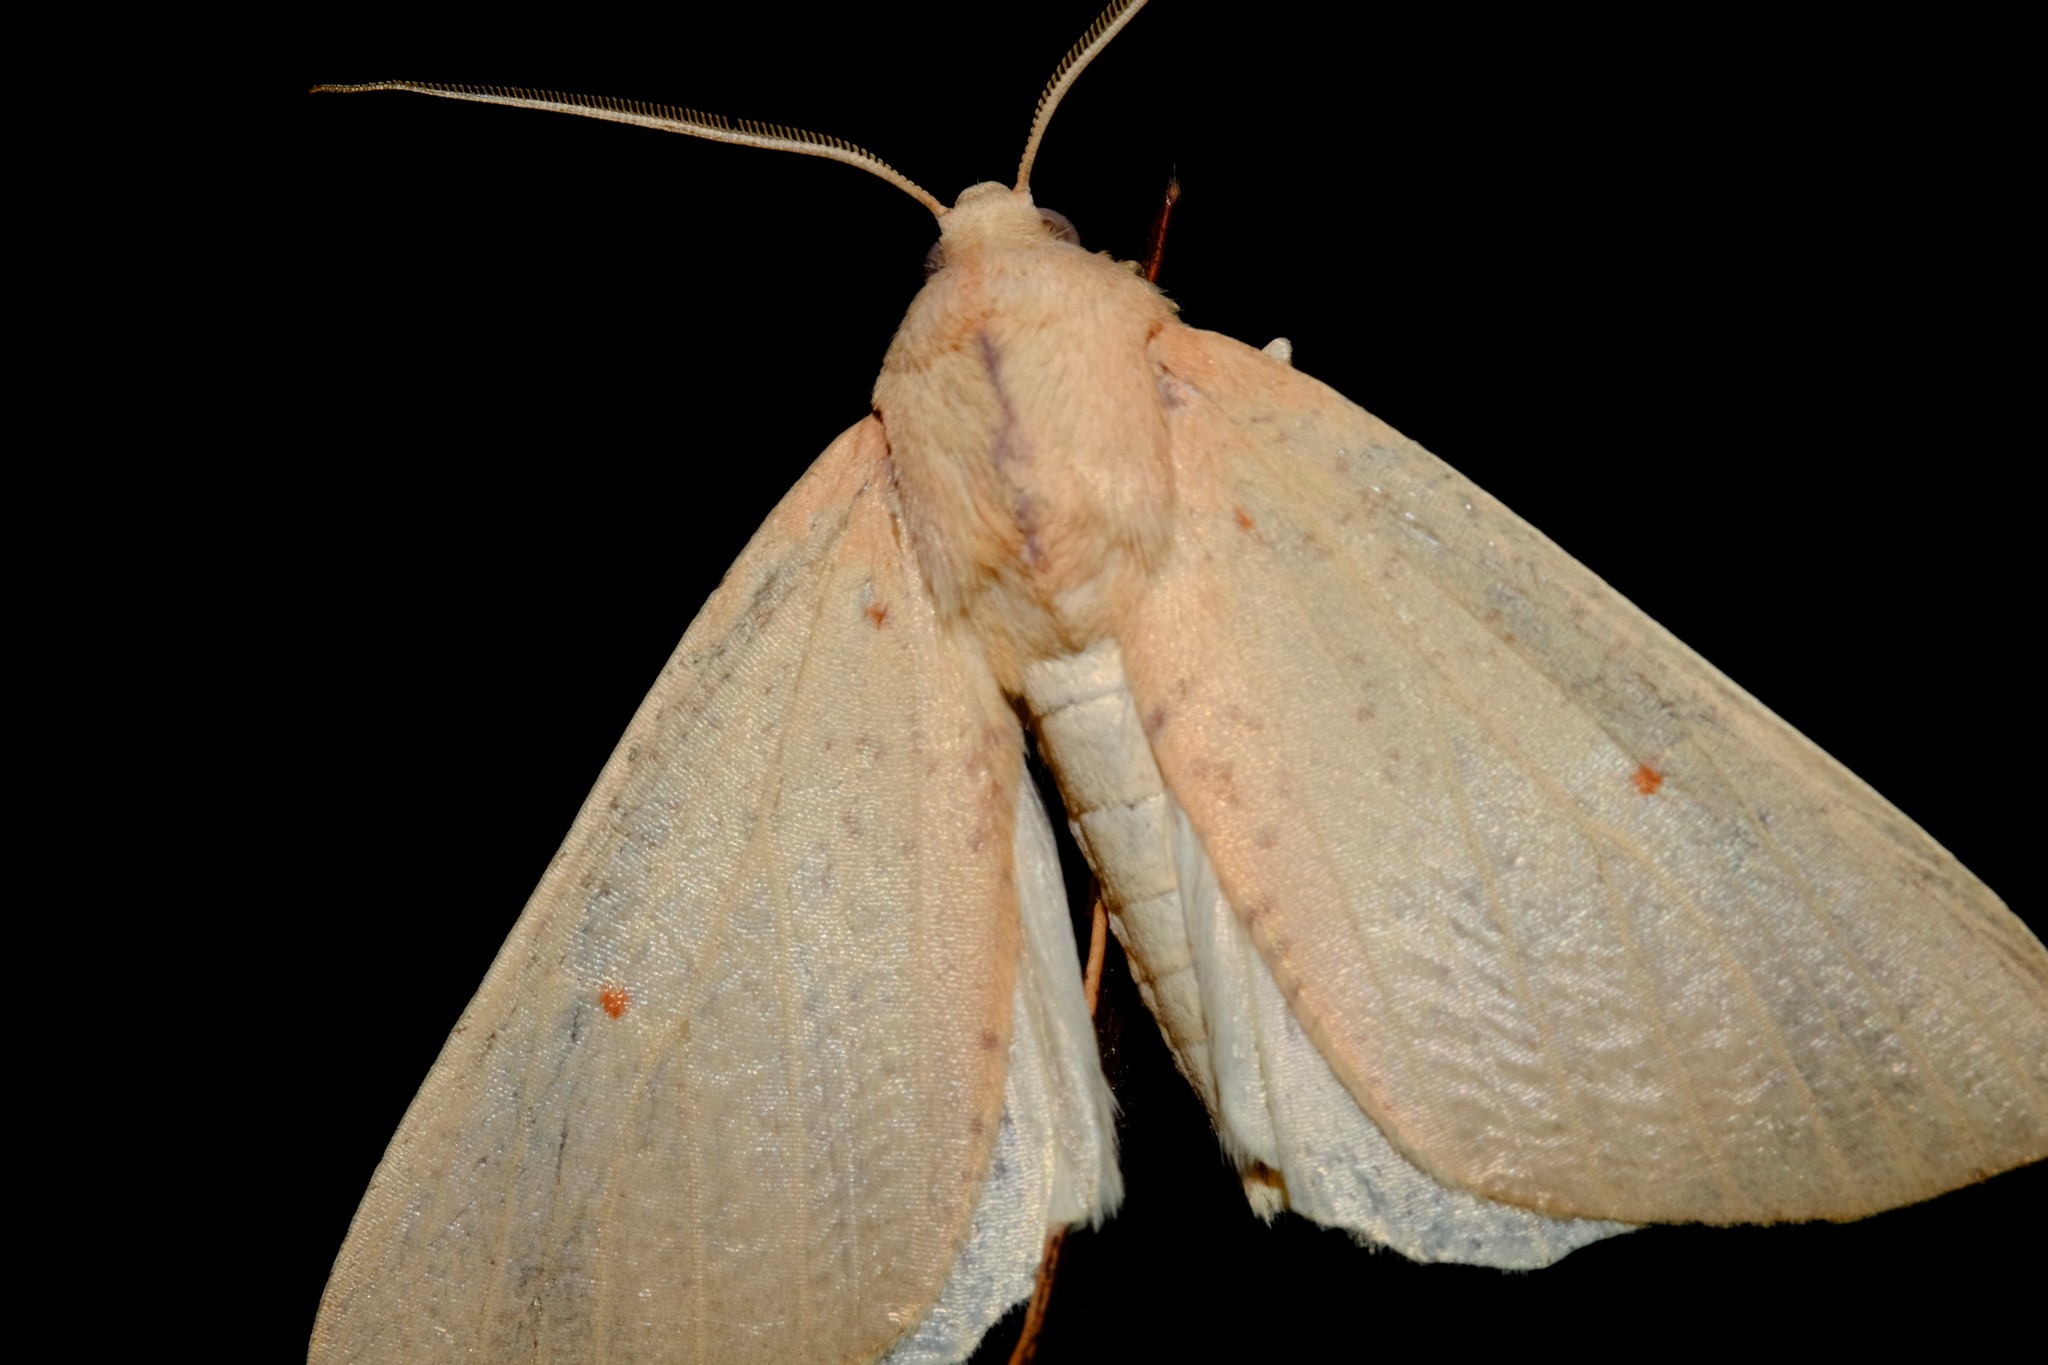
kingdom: Animalia
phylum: Arthropoda
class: Insecta
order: Lepidoptera
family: Geometridae
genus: Plesanemma
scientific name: Plesanemma fucata
